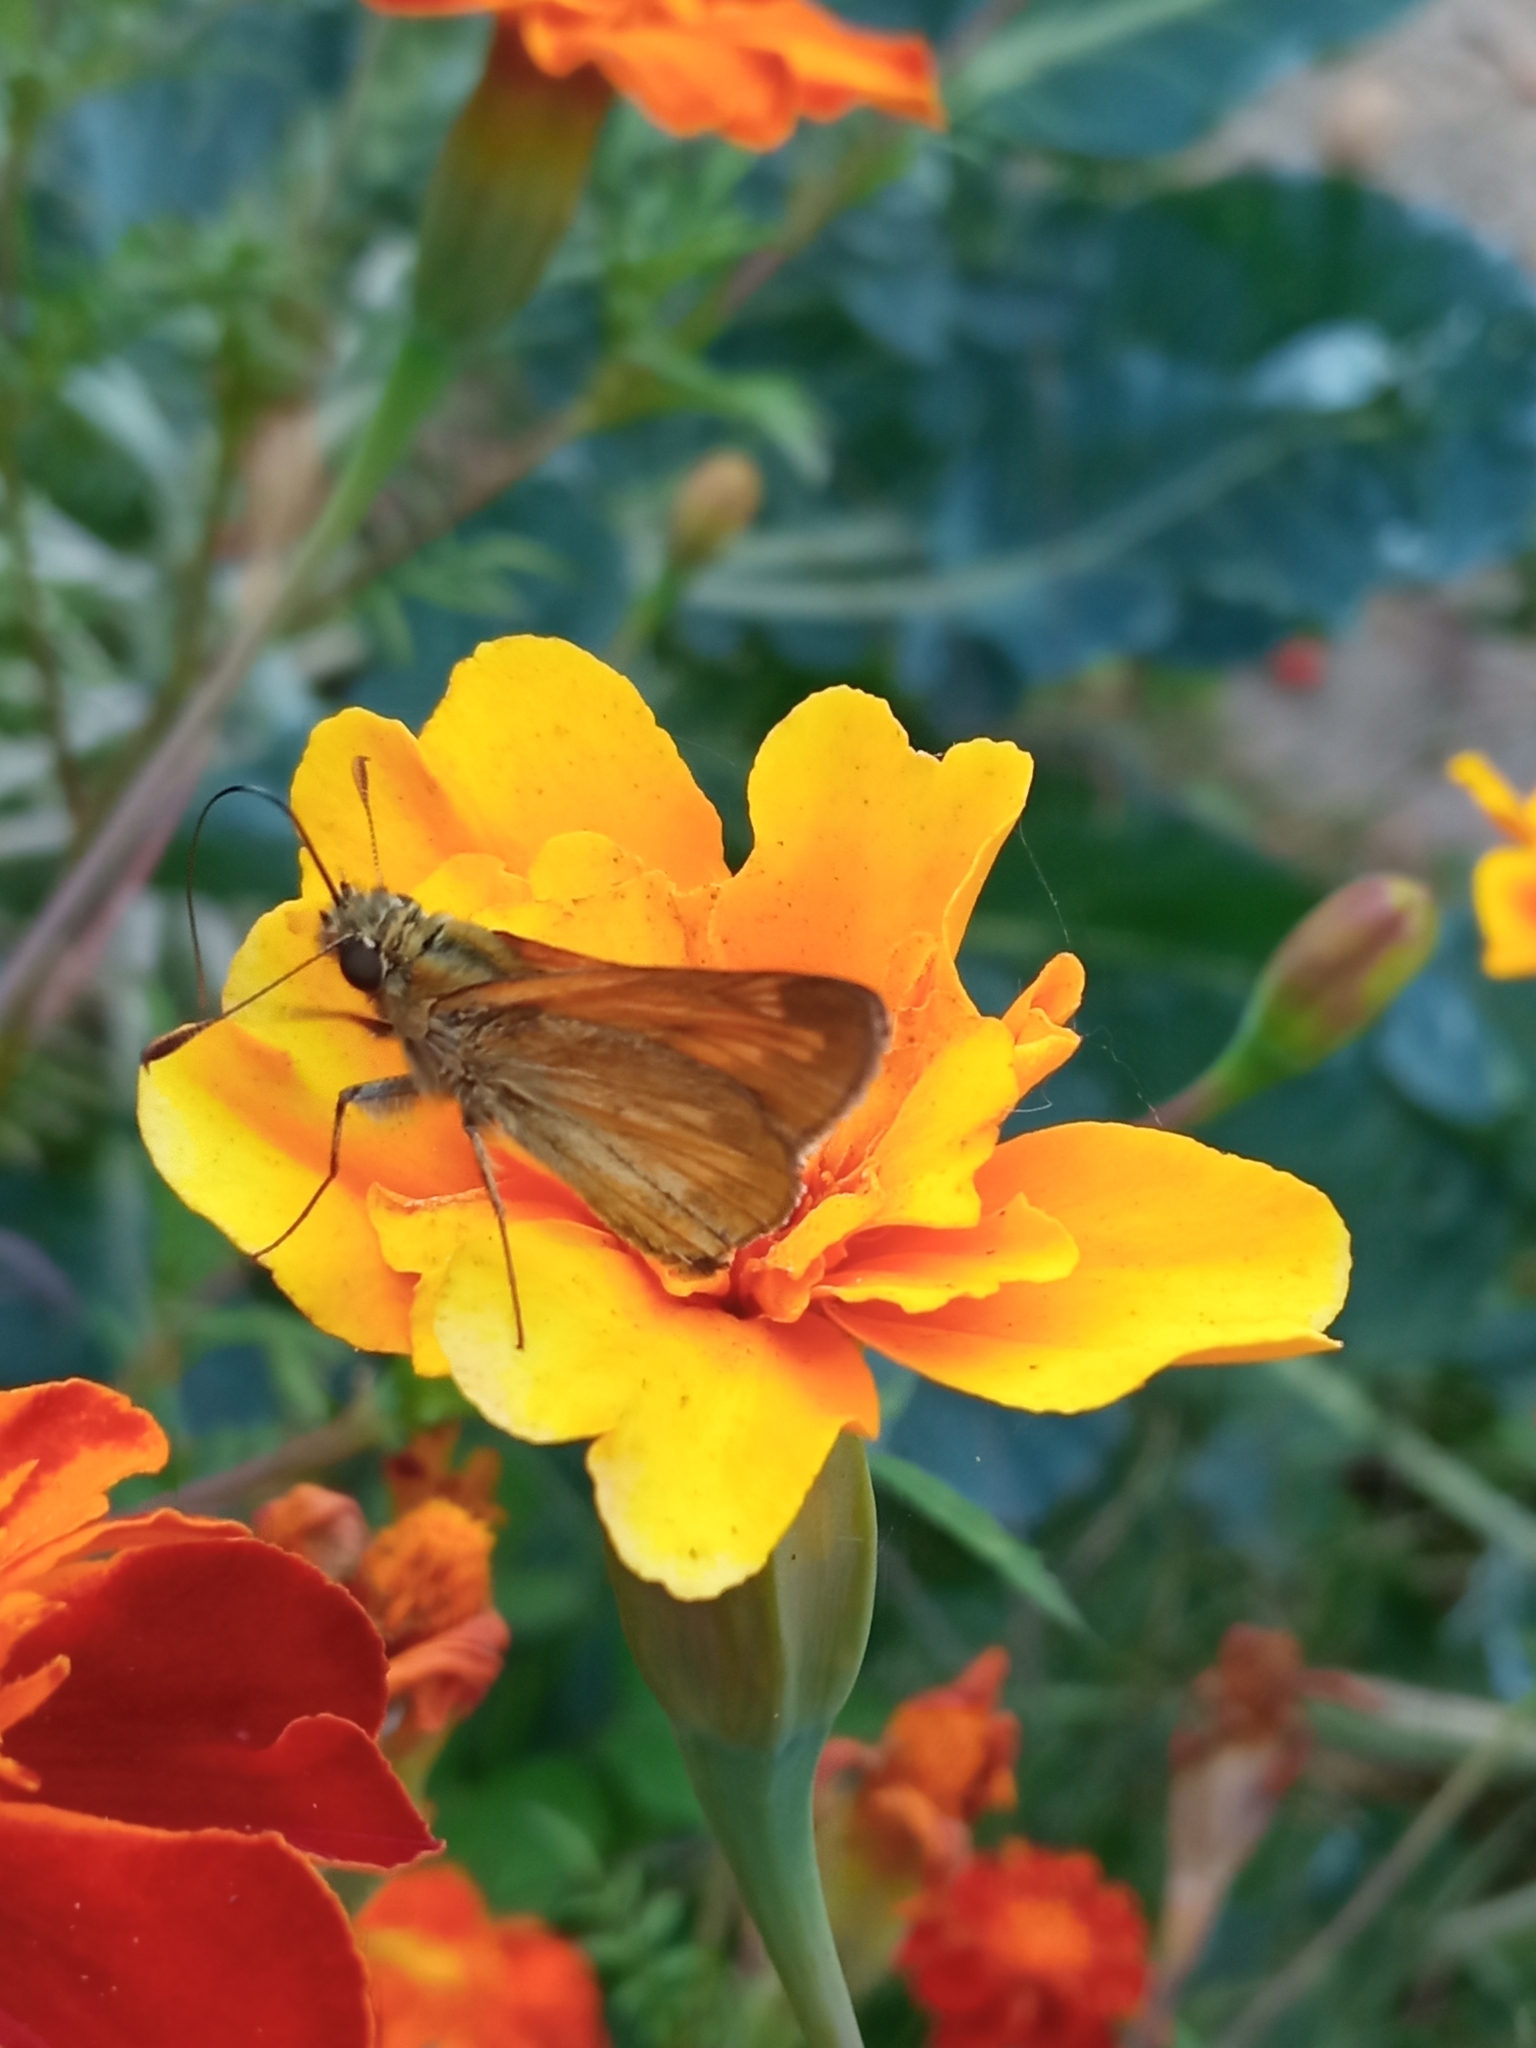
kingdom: Animalia
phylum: Arthropoda
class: Insecta
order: Lepidoptera
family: Hesperiidae
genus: Ochlodes
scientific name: Ochlodes venata
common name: Large skipper
